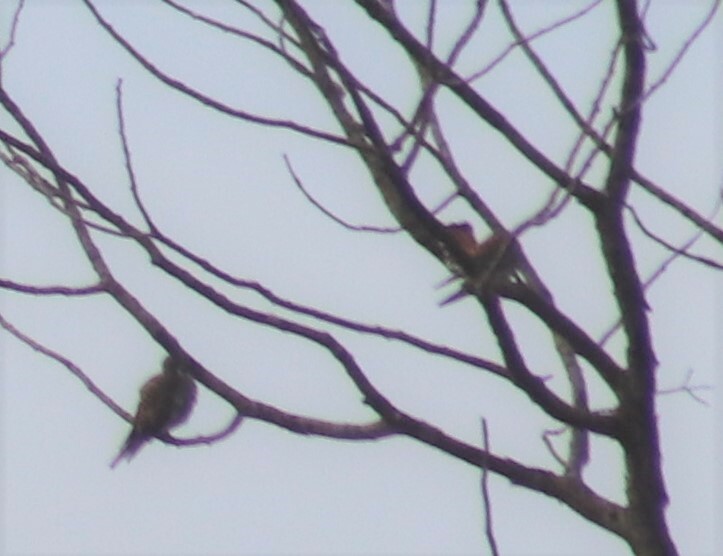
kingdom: Animalia
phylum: Chordata
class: Aves
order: Falconiformes
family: Falconidae
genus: Falco
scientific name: Falco sparverius
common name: American kestrel
